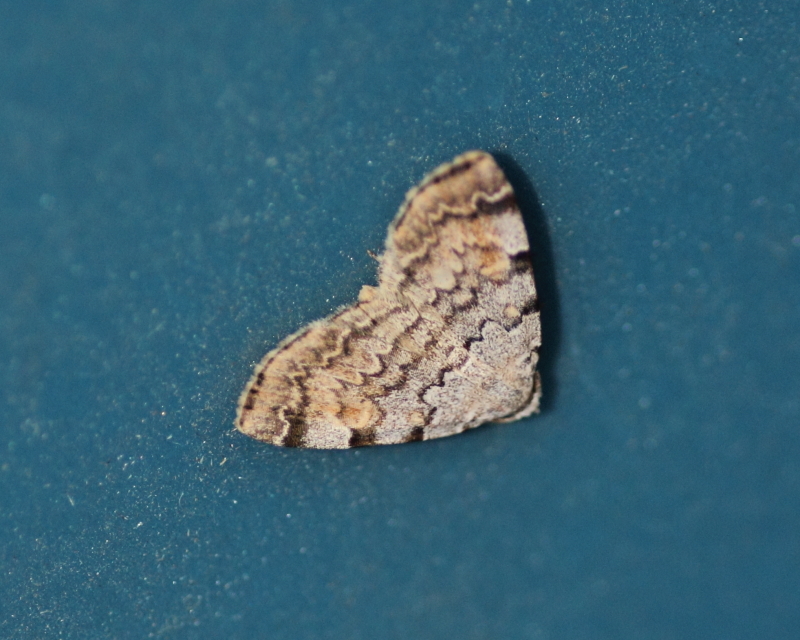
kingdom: Animalia
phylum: Arthropoda
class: Insecta
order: Lepidoptera
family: Erebidae
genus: Idia
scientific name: Idia americalis
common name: American idia moth
